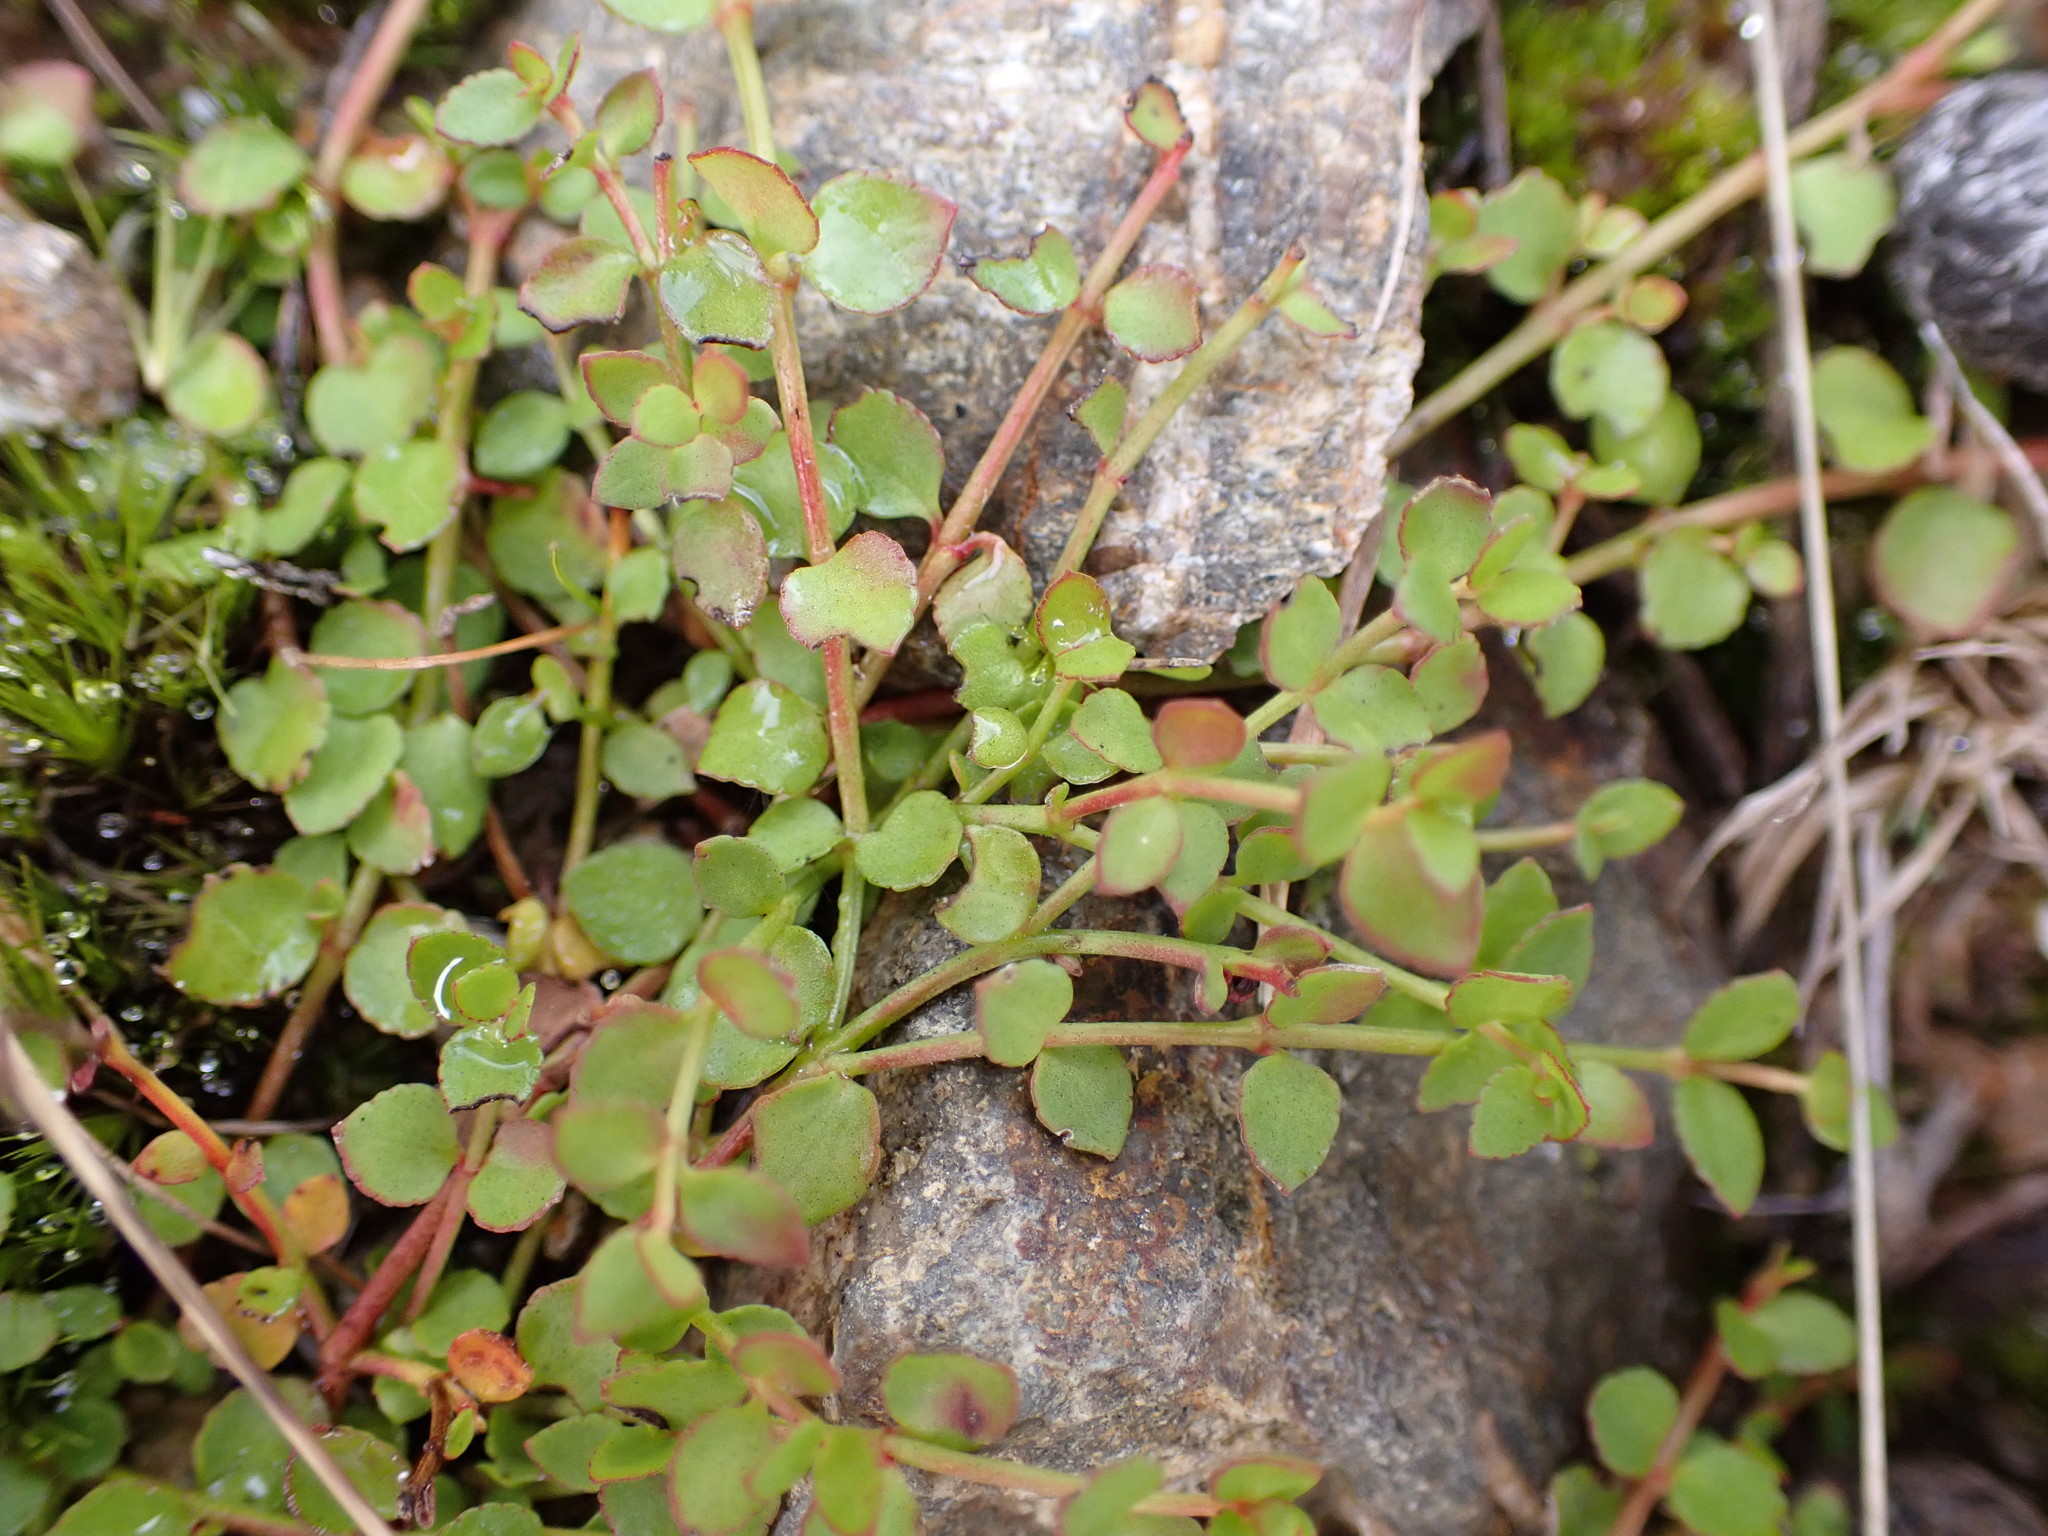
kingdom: Plantae
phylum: Tracheophyta
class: Magnoliopsida
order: Saxifragales
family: Haloragaceae
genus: Gonocarpus
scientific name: Gonocarpus micranthus
